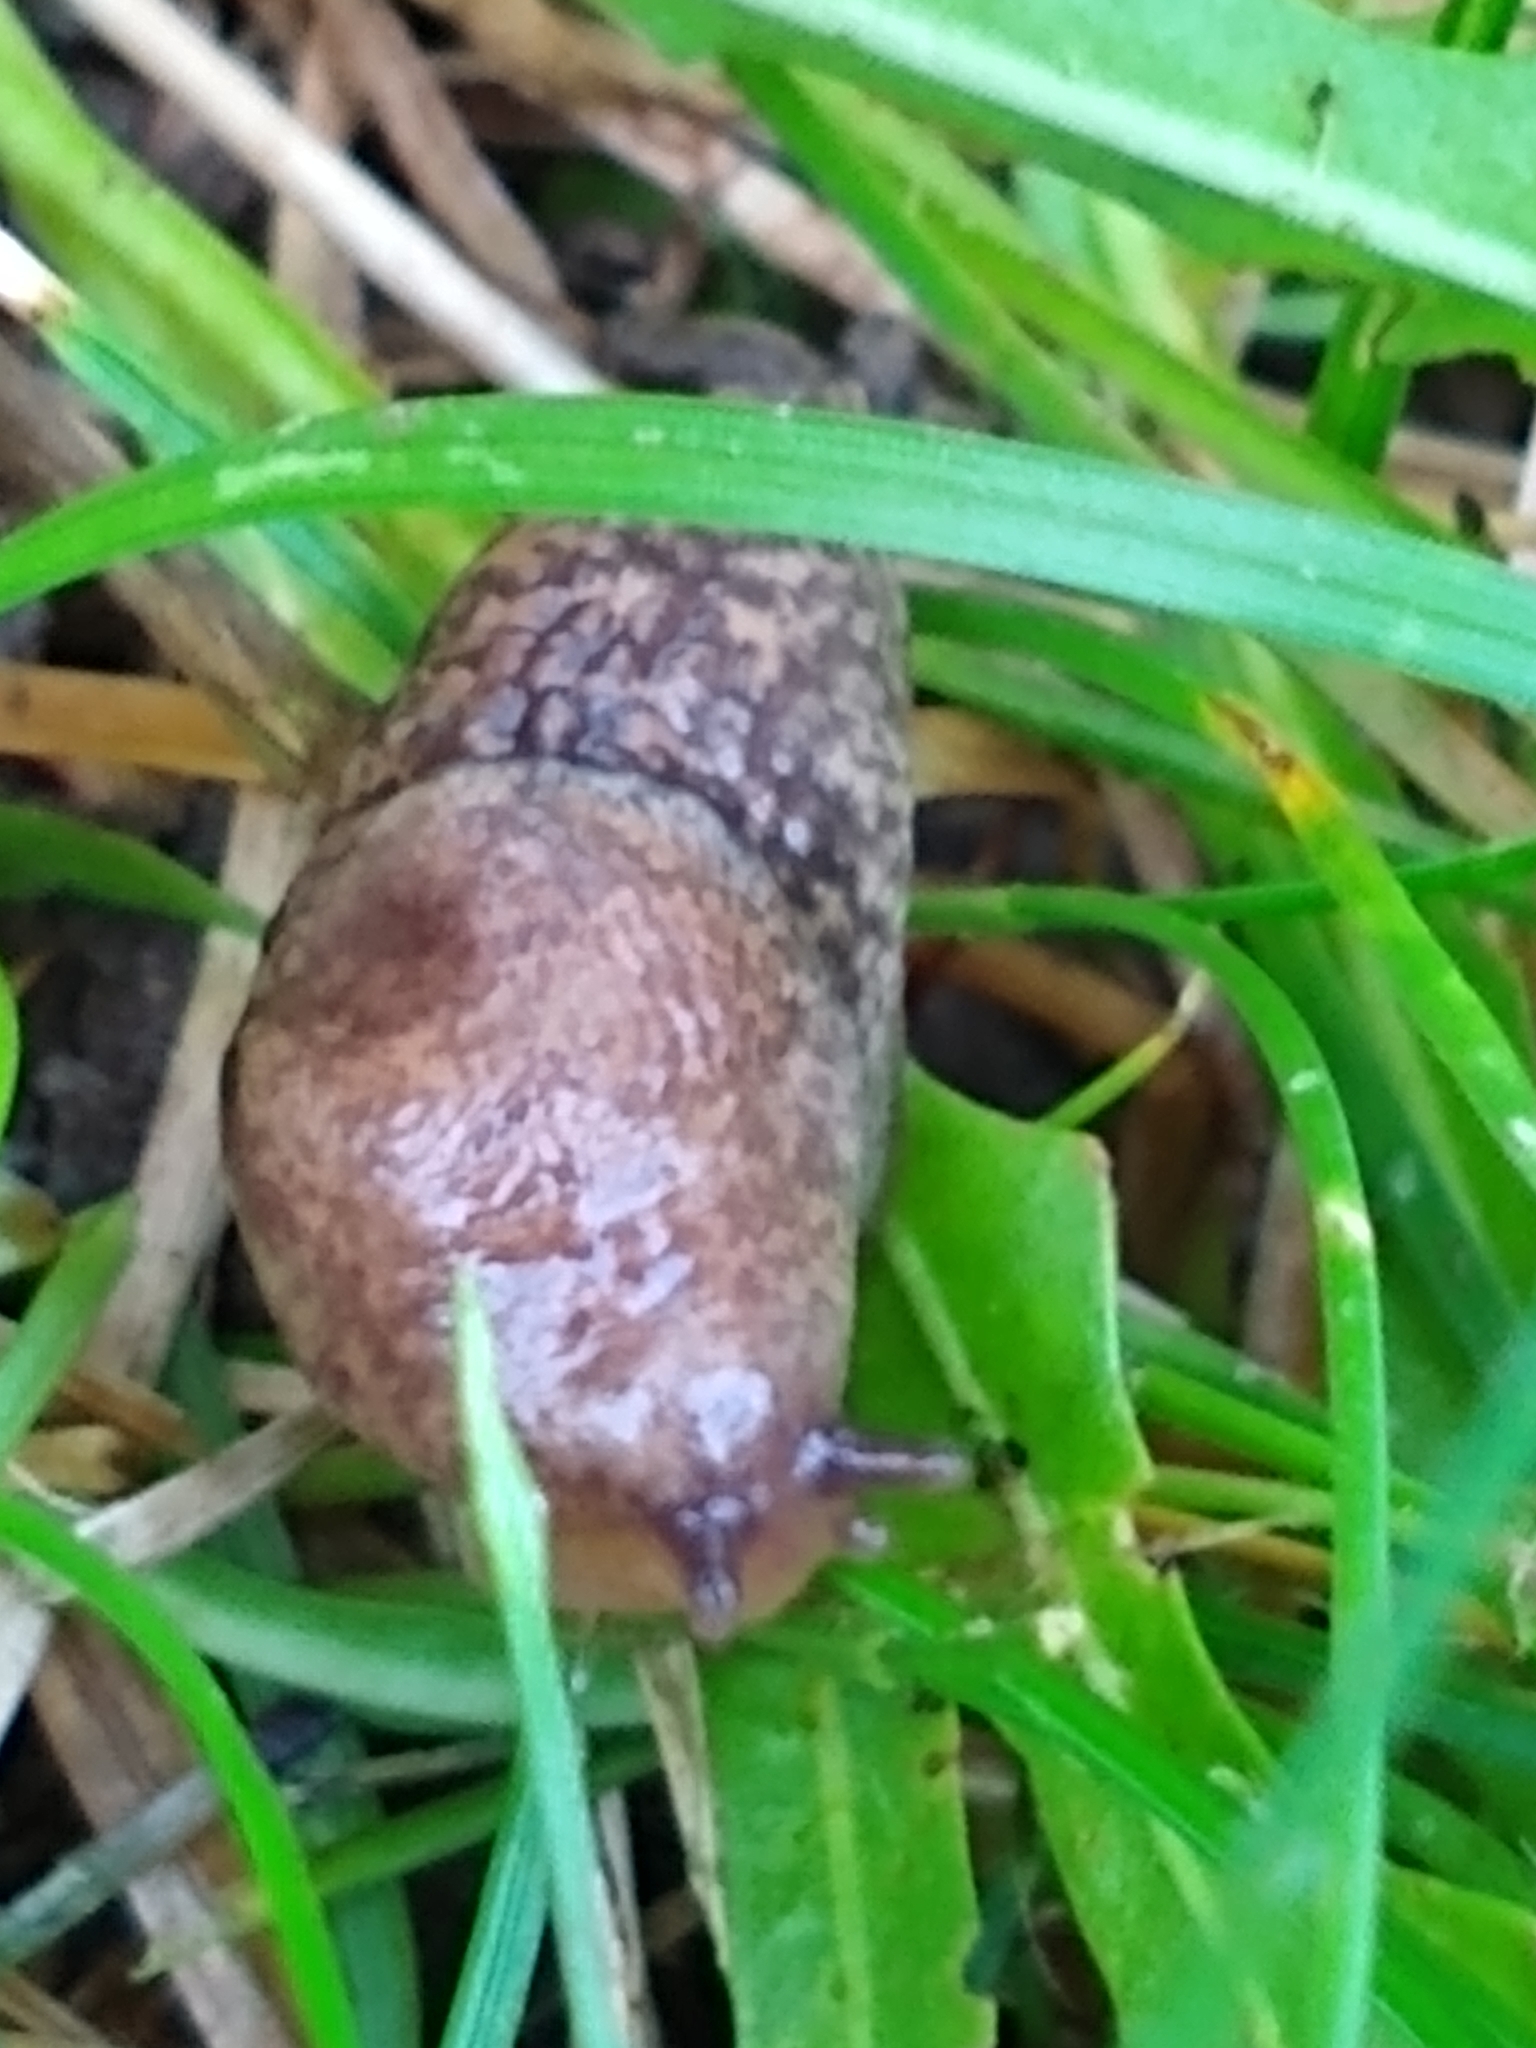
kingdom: Animalia
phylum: Mollusca
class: Gastropoda
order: Stylommatophora
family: Agriolimacidae
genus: Deroceras
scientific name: Deroceras reticulatum
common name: Gray field slug
